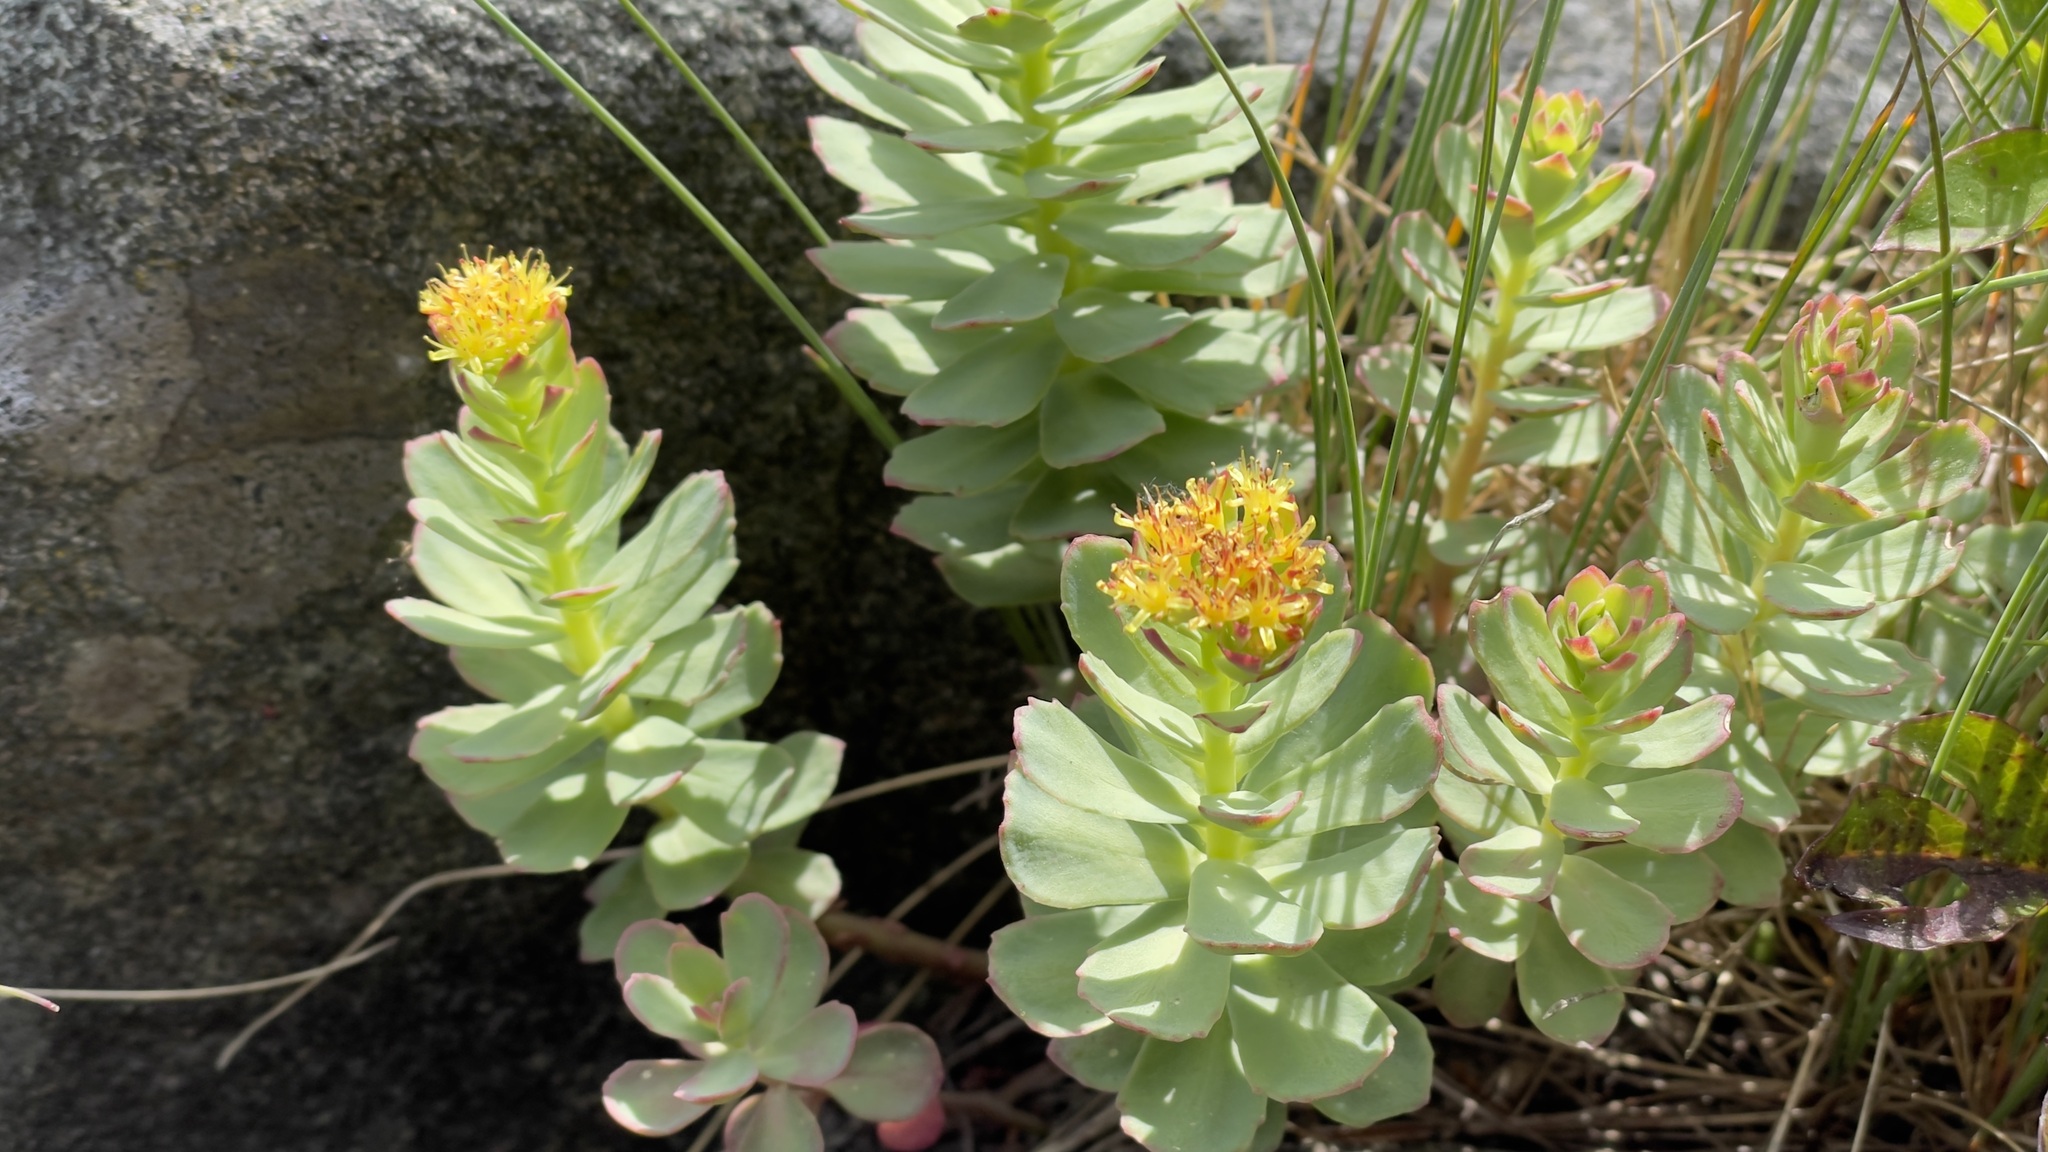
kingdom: Plantae
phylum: Tracheophyta
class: Magnoliopsida
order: Saxifragales
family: Crassulaceae
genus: Rhodiola
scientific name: Rhodiola rosea
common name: Roseroot
